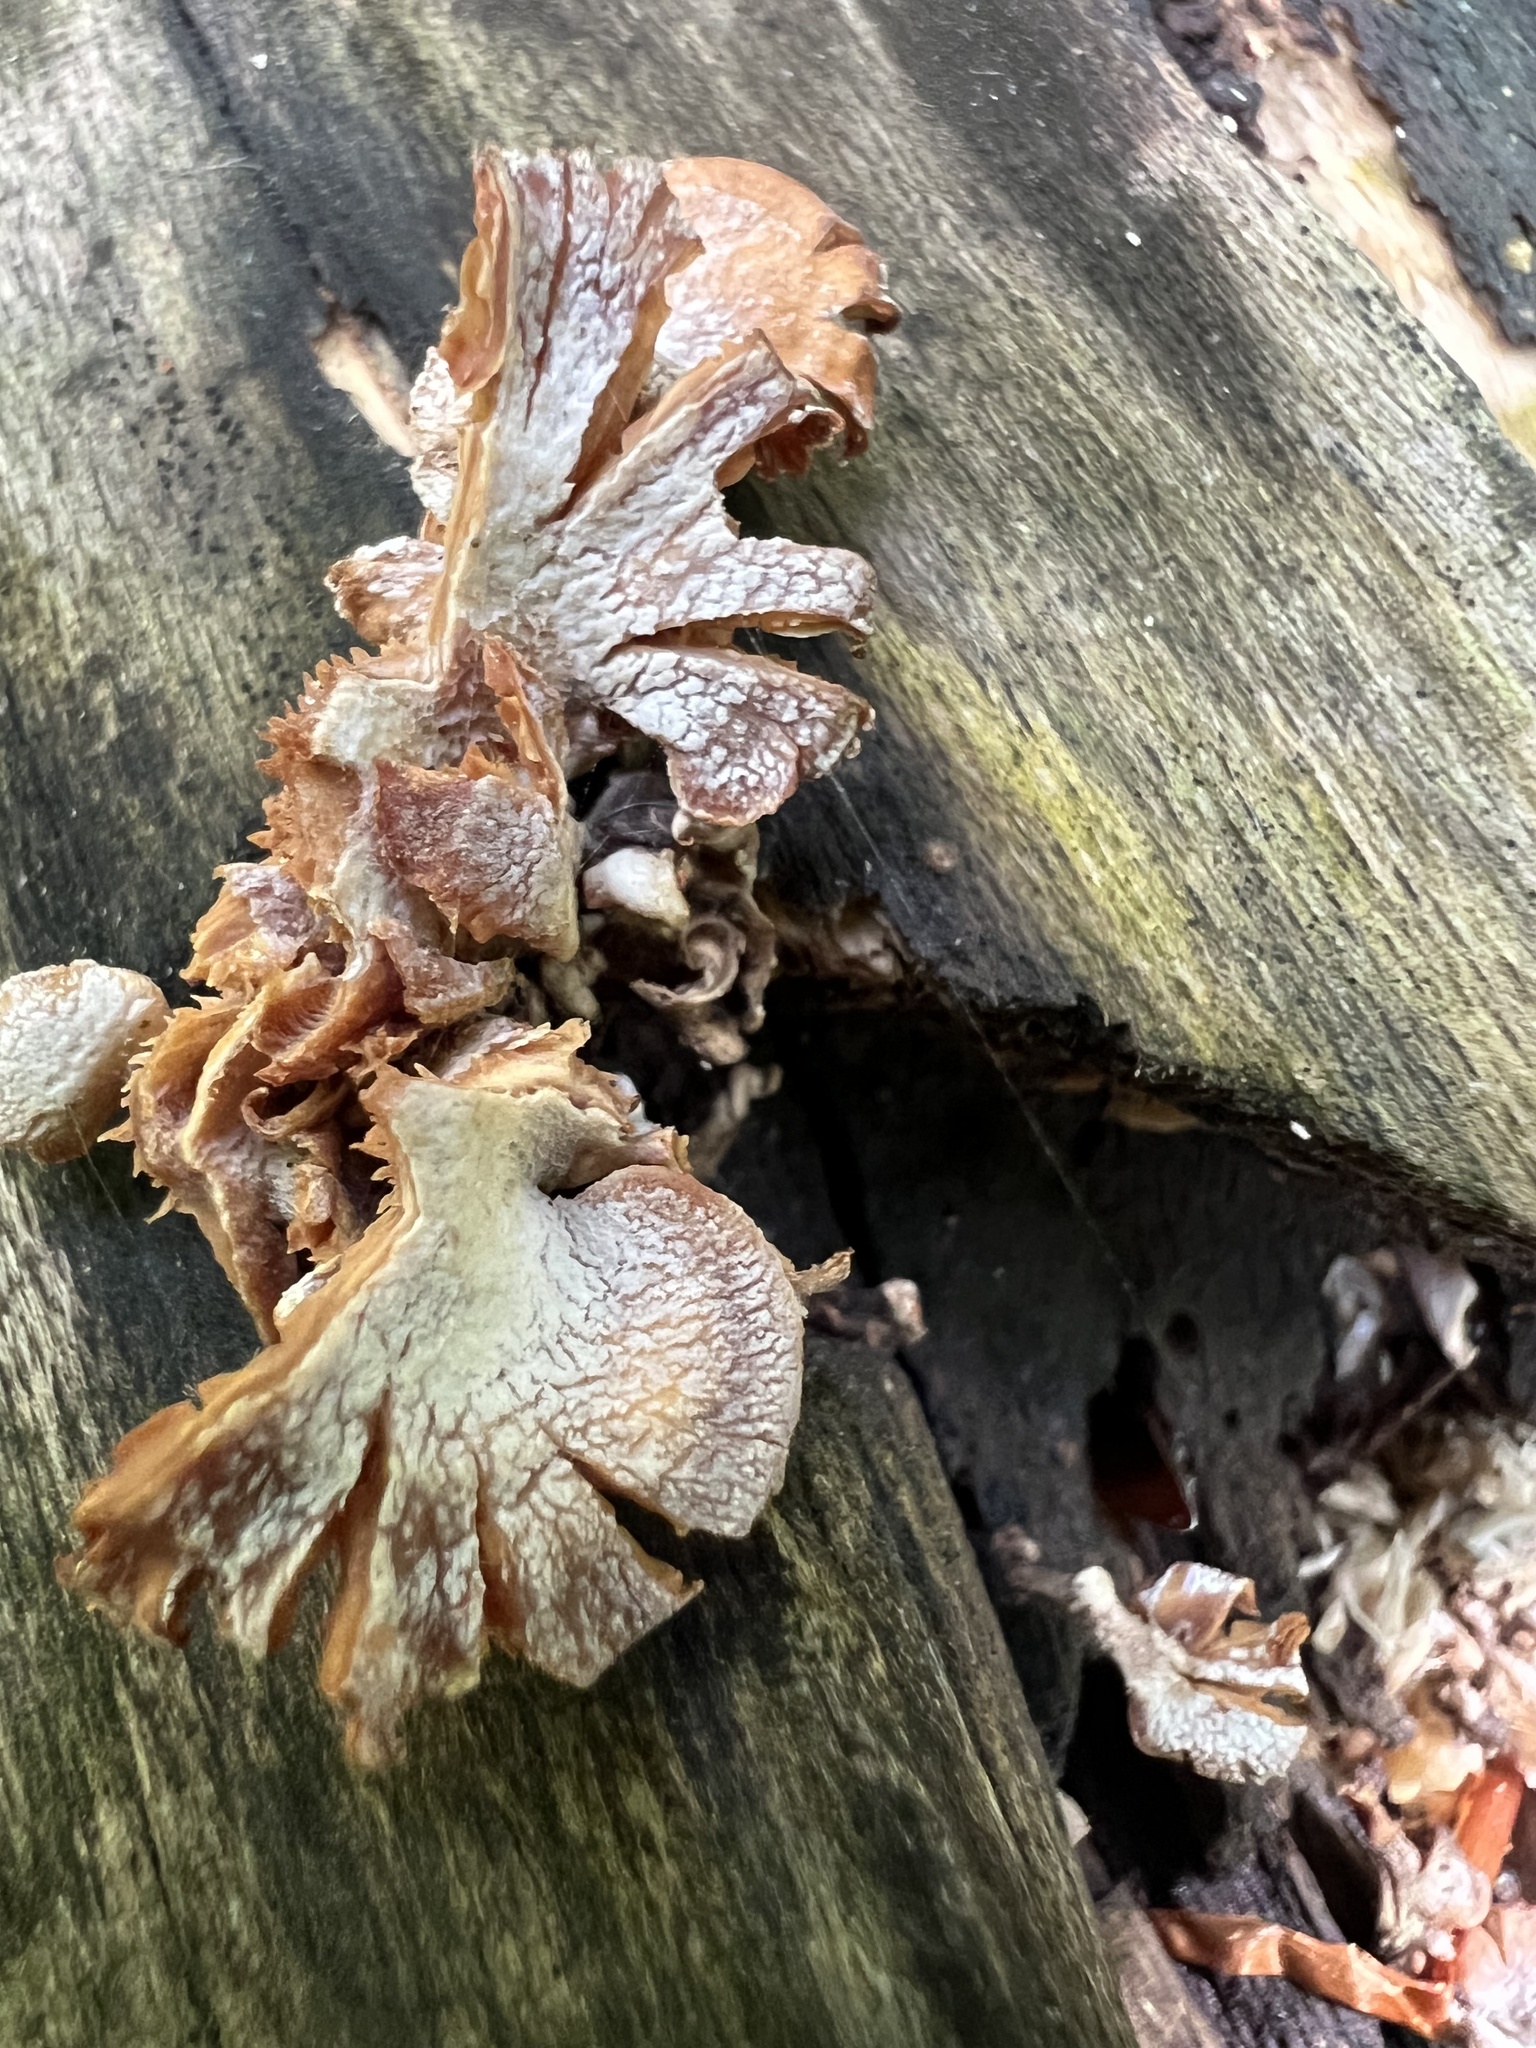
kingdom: Fungi
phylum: Basidiomycota
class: Agaricomycetes
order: Agaricales
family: Mycenaceae
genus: Panellus
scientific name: Panellus stipticus
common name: Bitter oysterling
